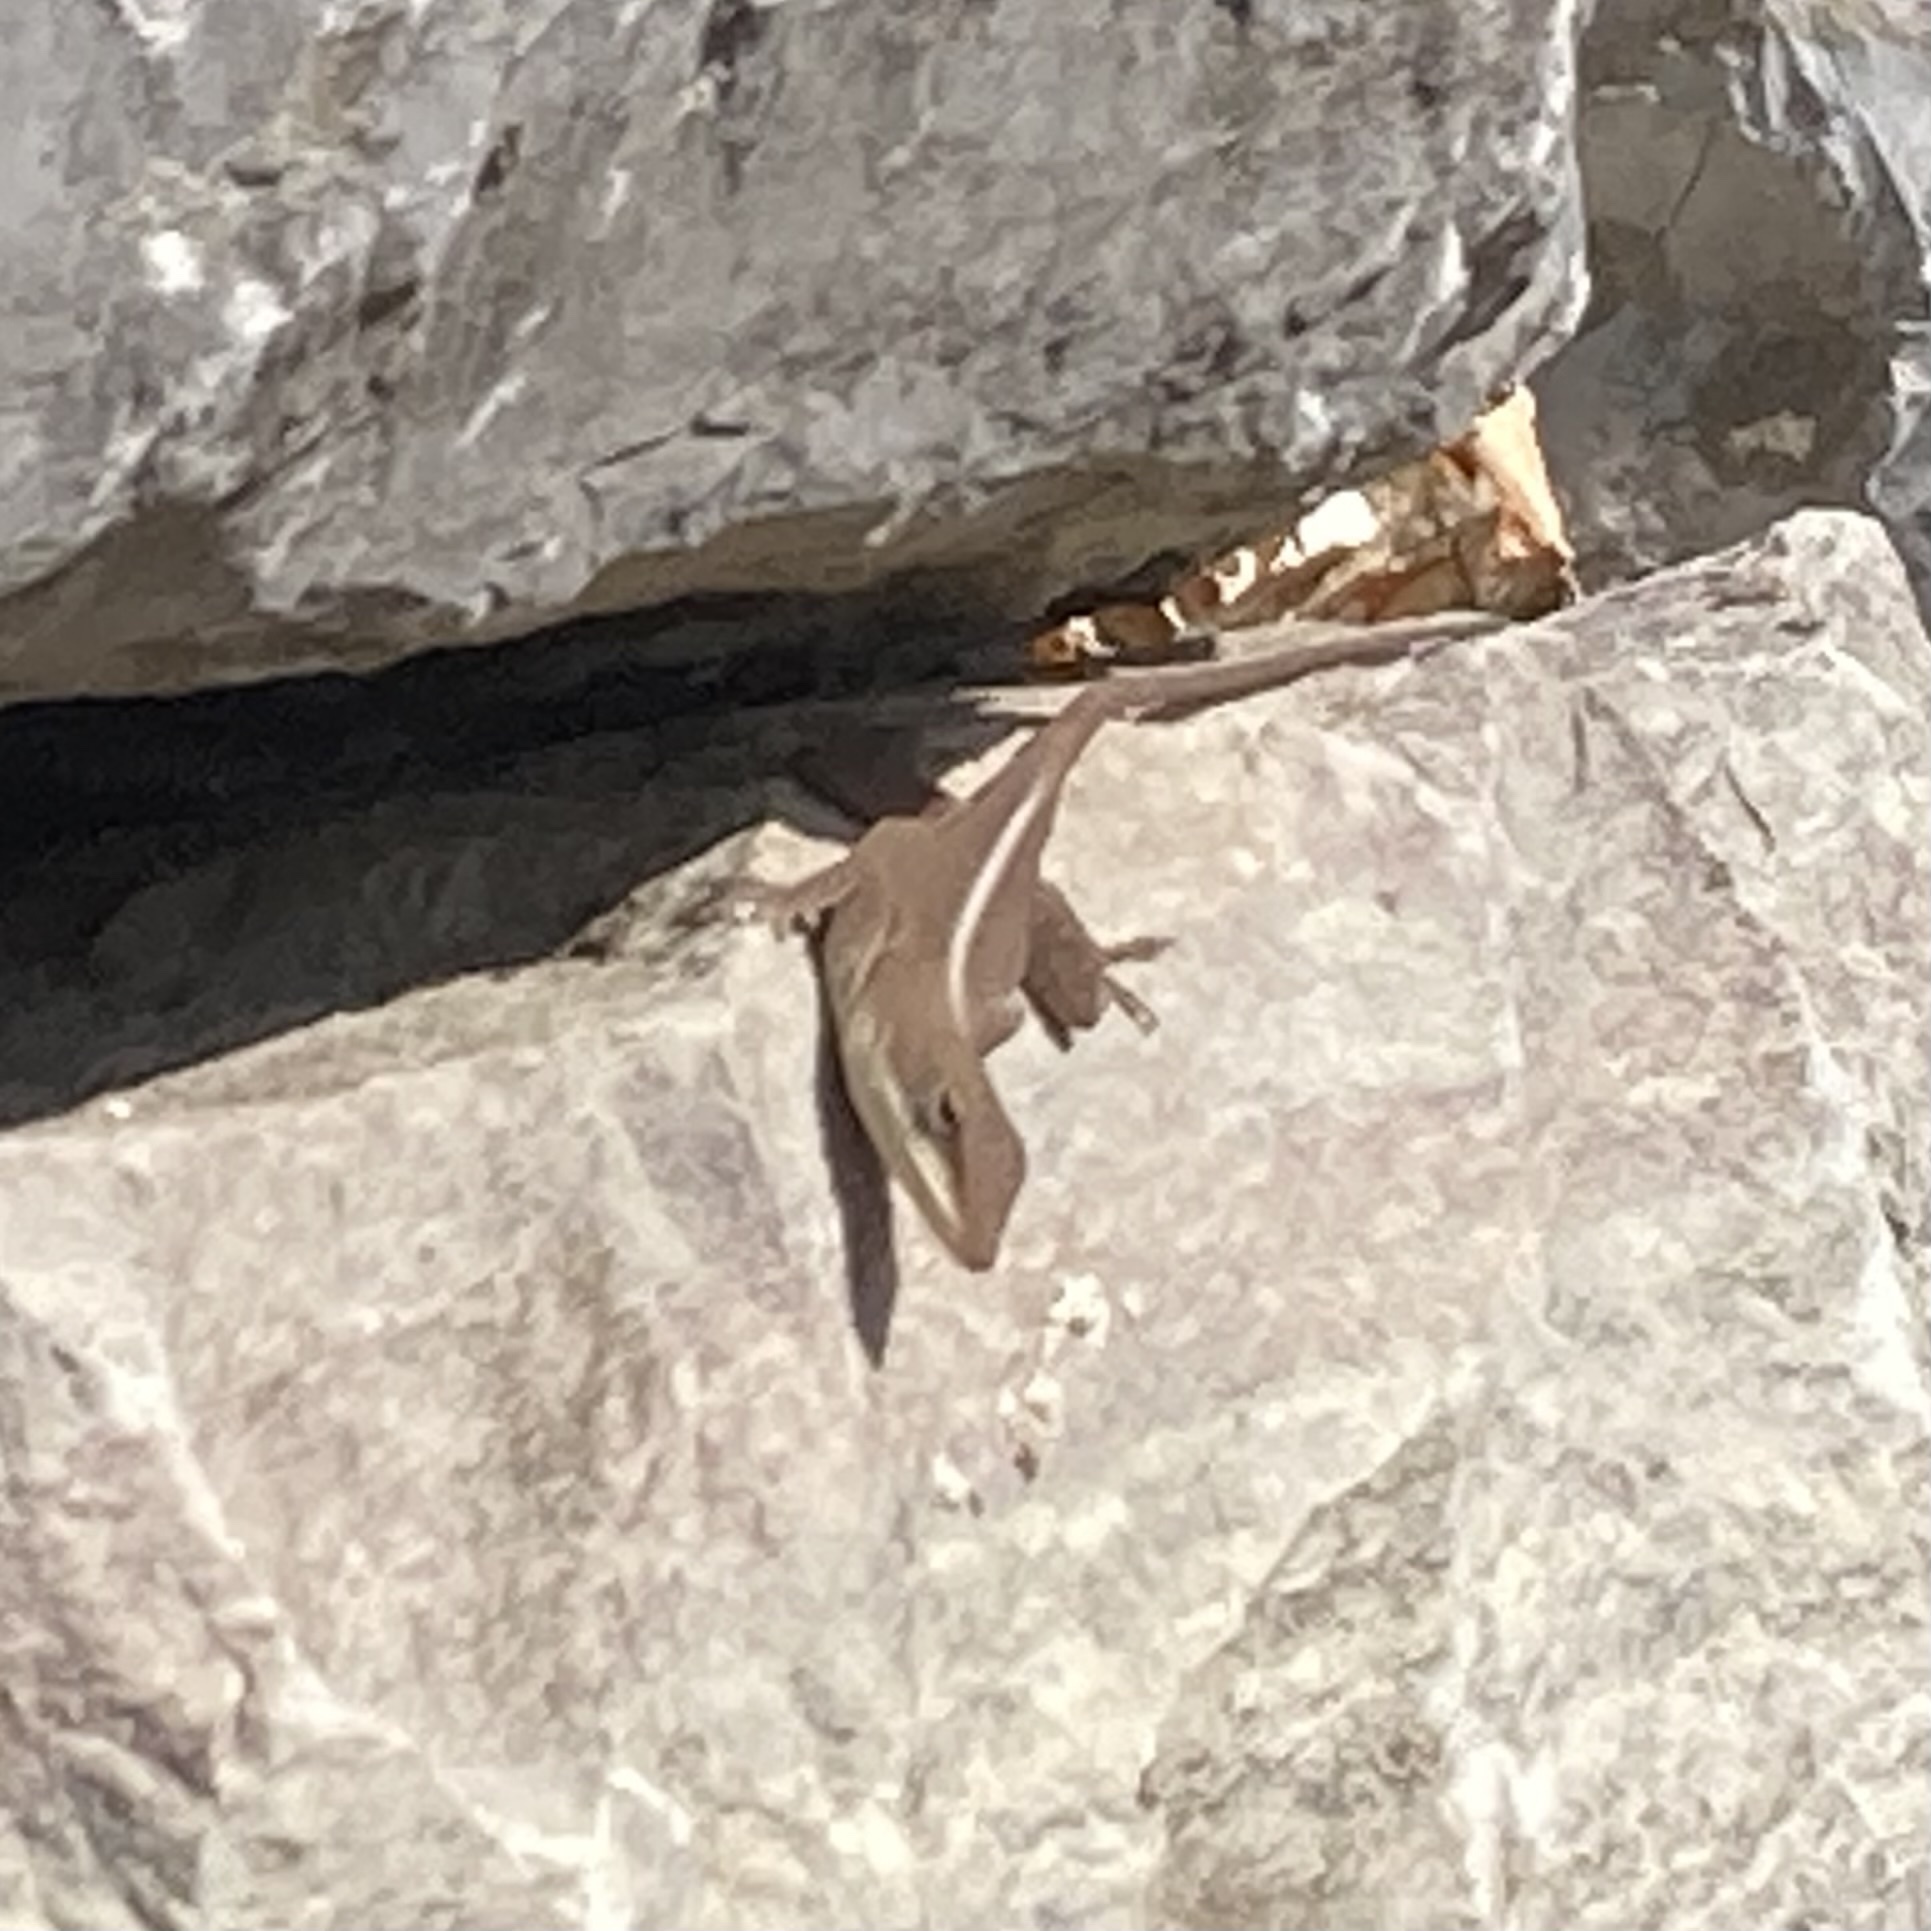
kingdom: Animalia
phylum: Chordata
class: Squamata
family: Dactyloidae
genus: Anolis
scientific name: Anolis carolinensis
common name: Green anole
